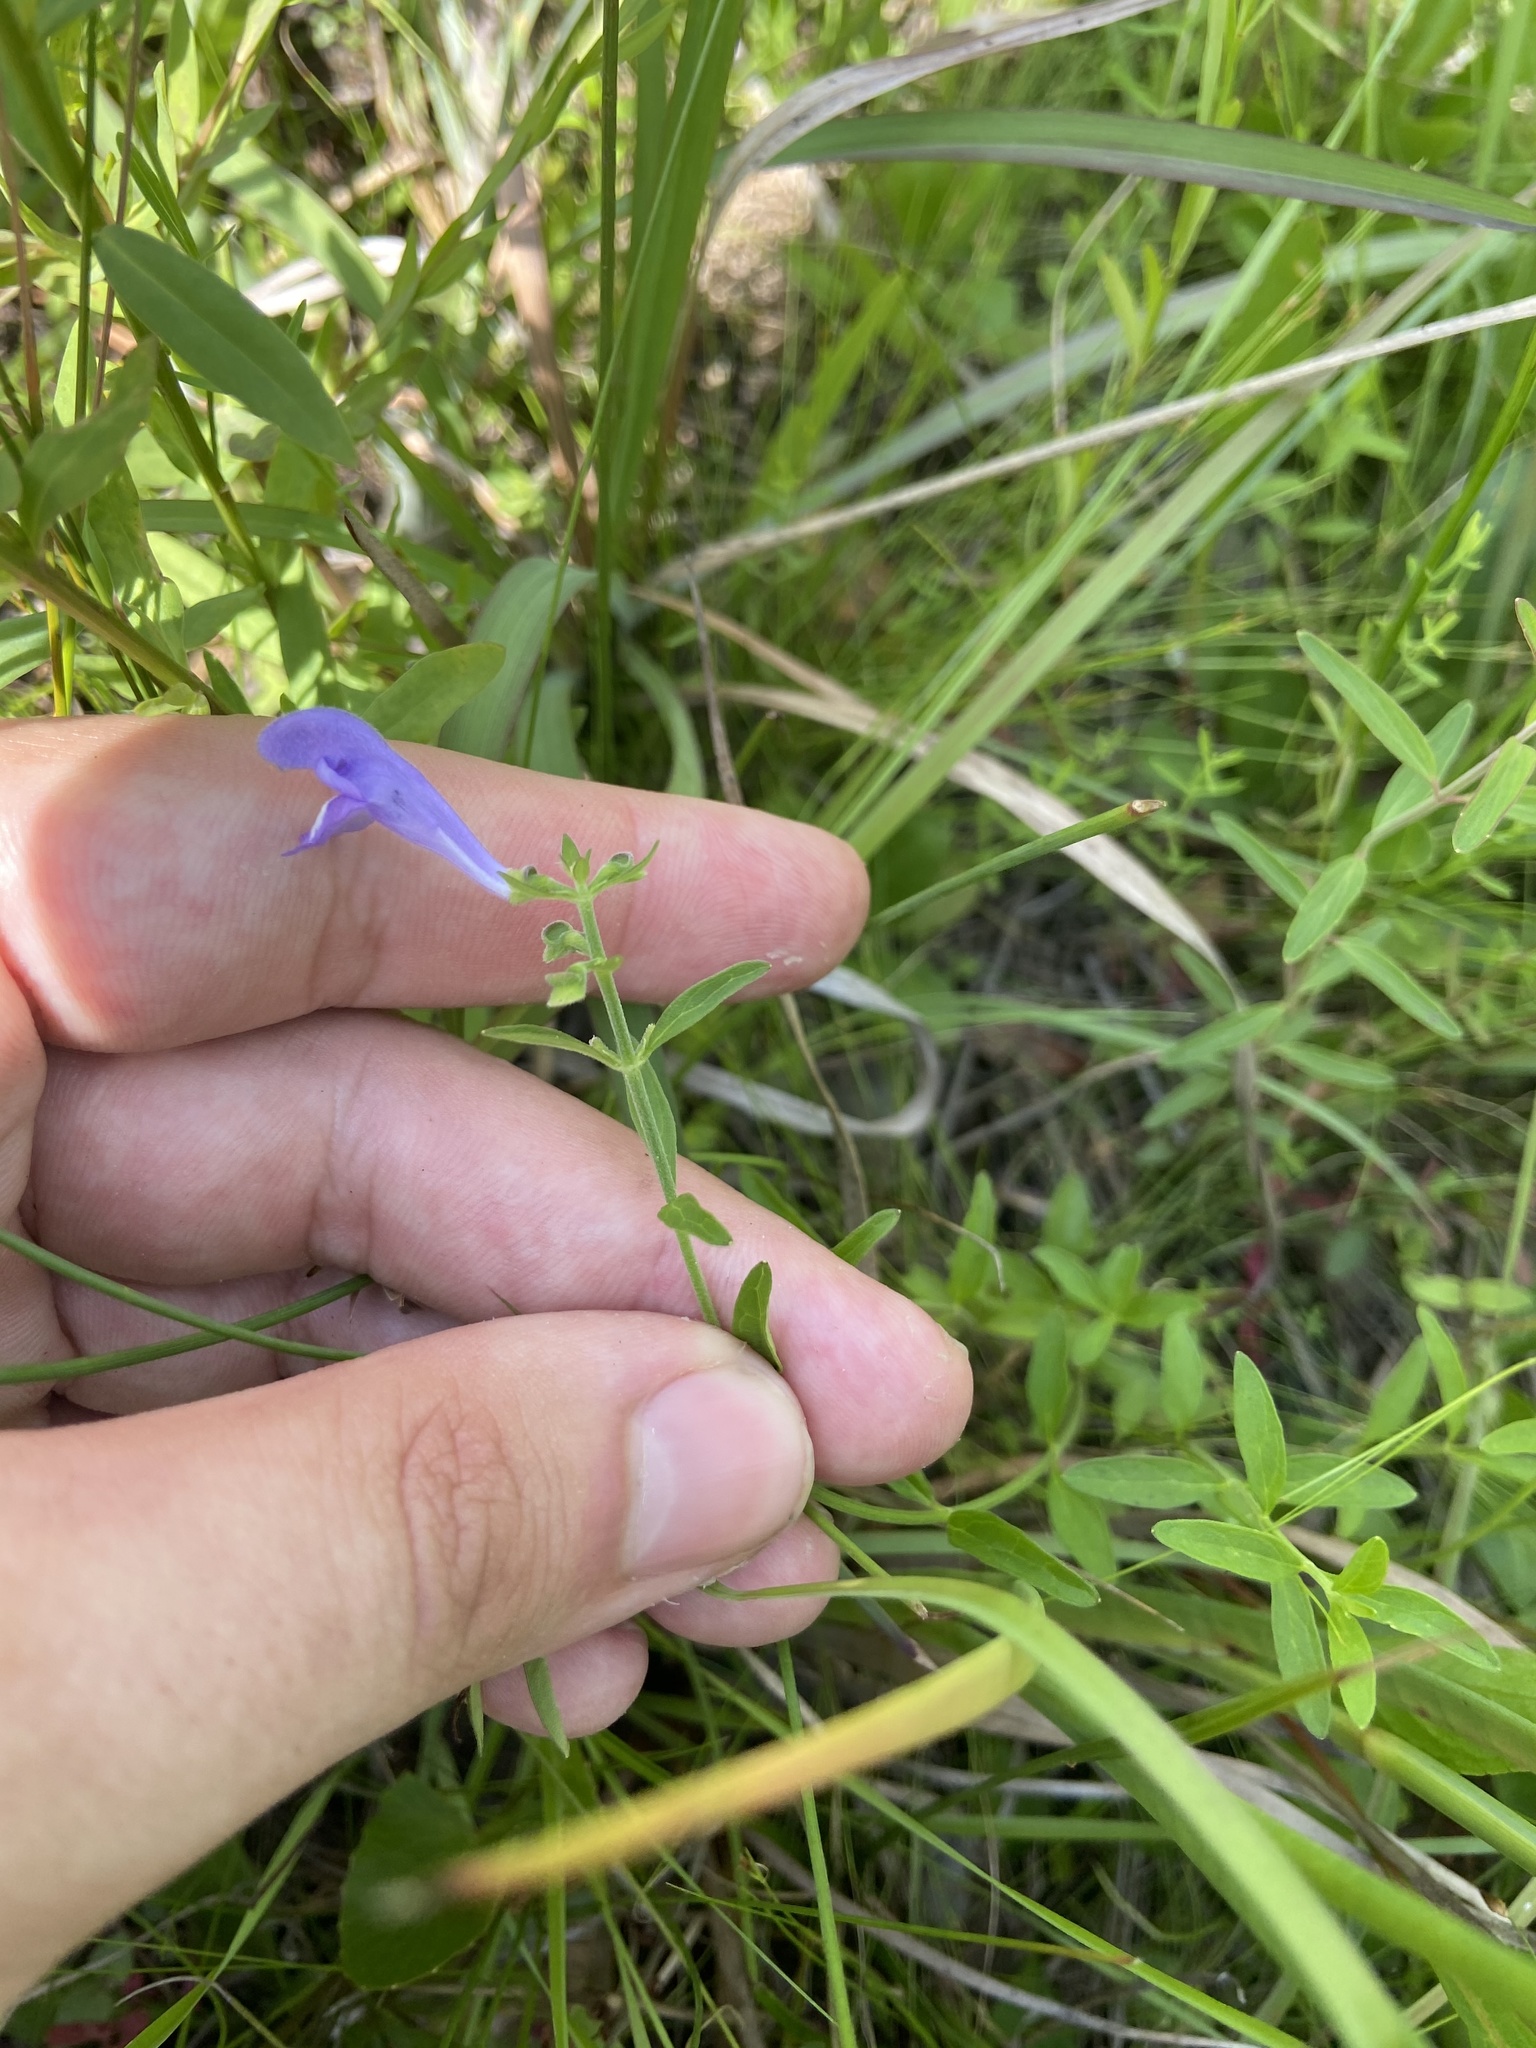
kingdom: Plantae
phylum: Tracheophyta
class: Magnoliopsida
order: Lamiales
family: Lamiaceae
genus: Scutellaria
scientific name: Scutellaria integrifolia
